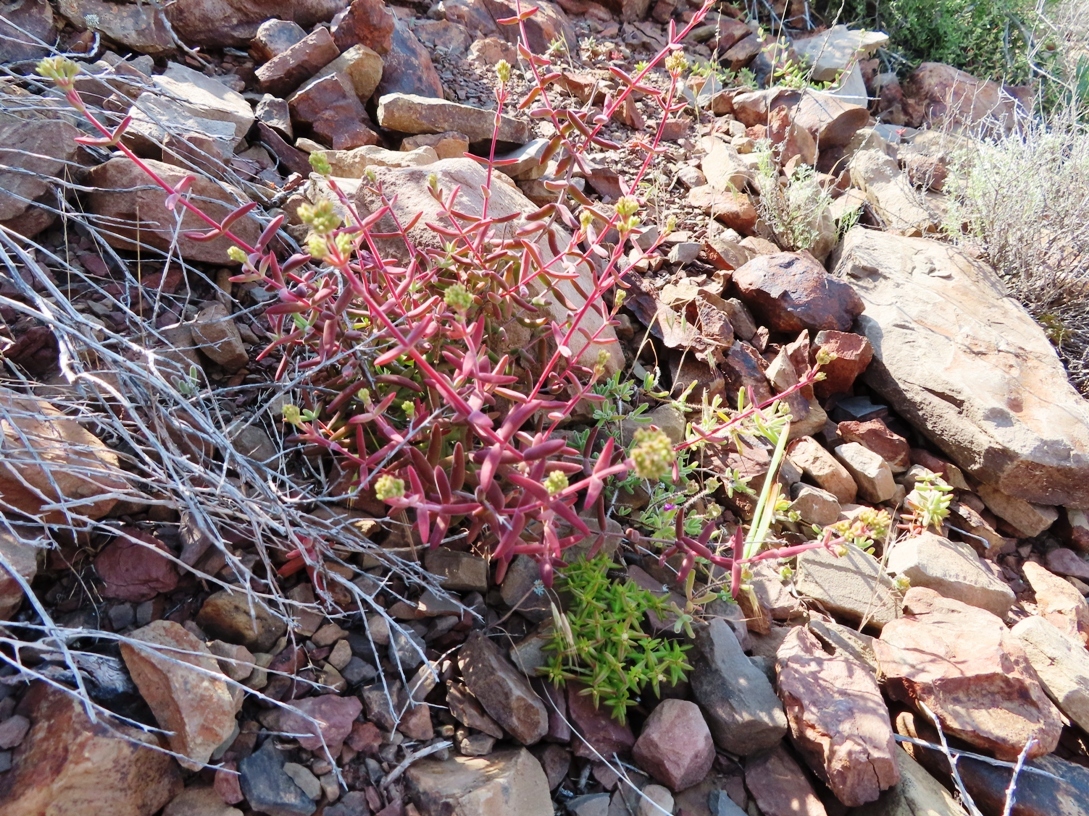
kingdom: Plantae
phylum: Tracheophyta
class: Magnoliopsida
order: Saxifragales
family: Crassulaceae
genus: Crassula
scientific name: Crassula subaphylla
